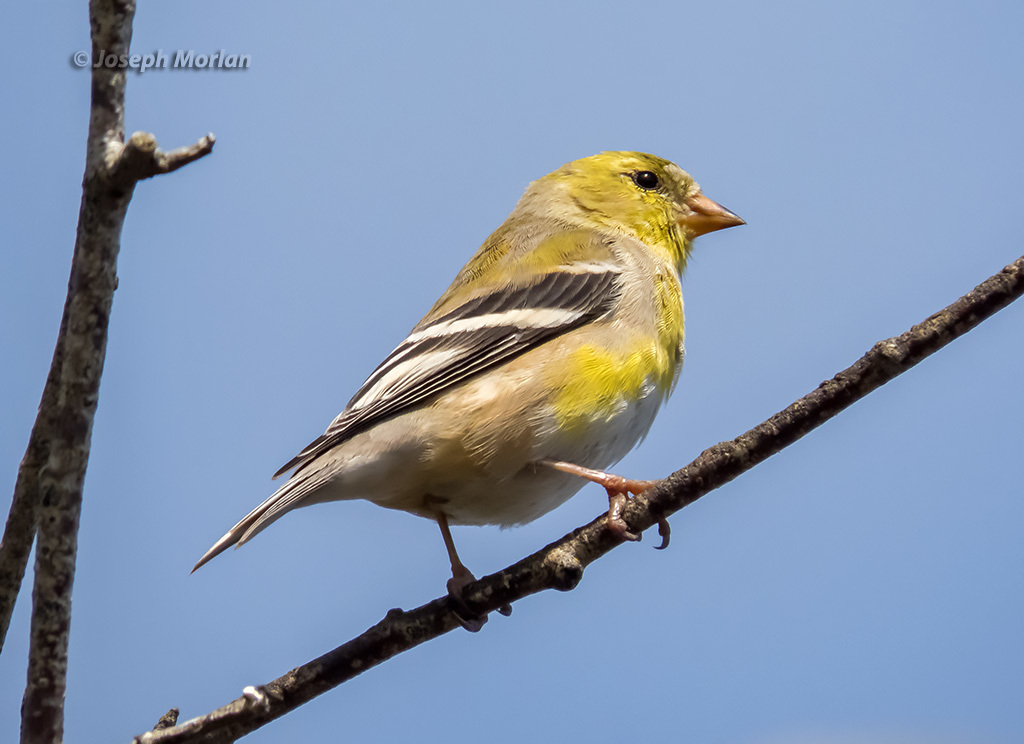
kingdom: Animalia
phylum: Chordata
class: Aves
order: Passeriformes
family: Fringillidae
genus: Spinus
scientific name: Spinus tristis
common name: American goldfinch
